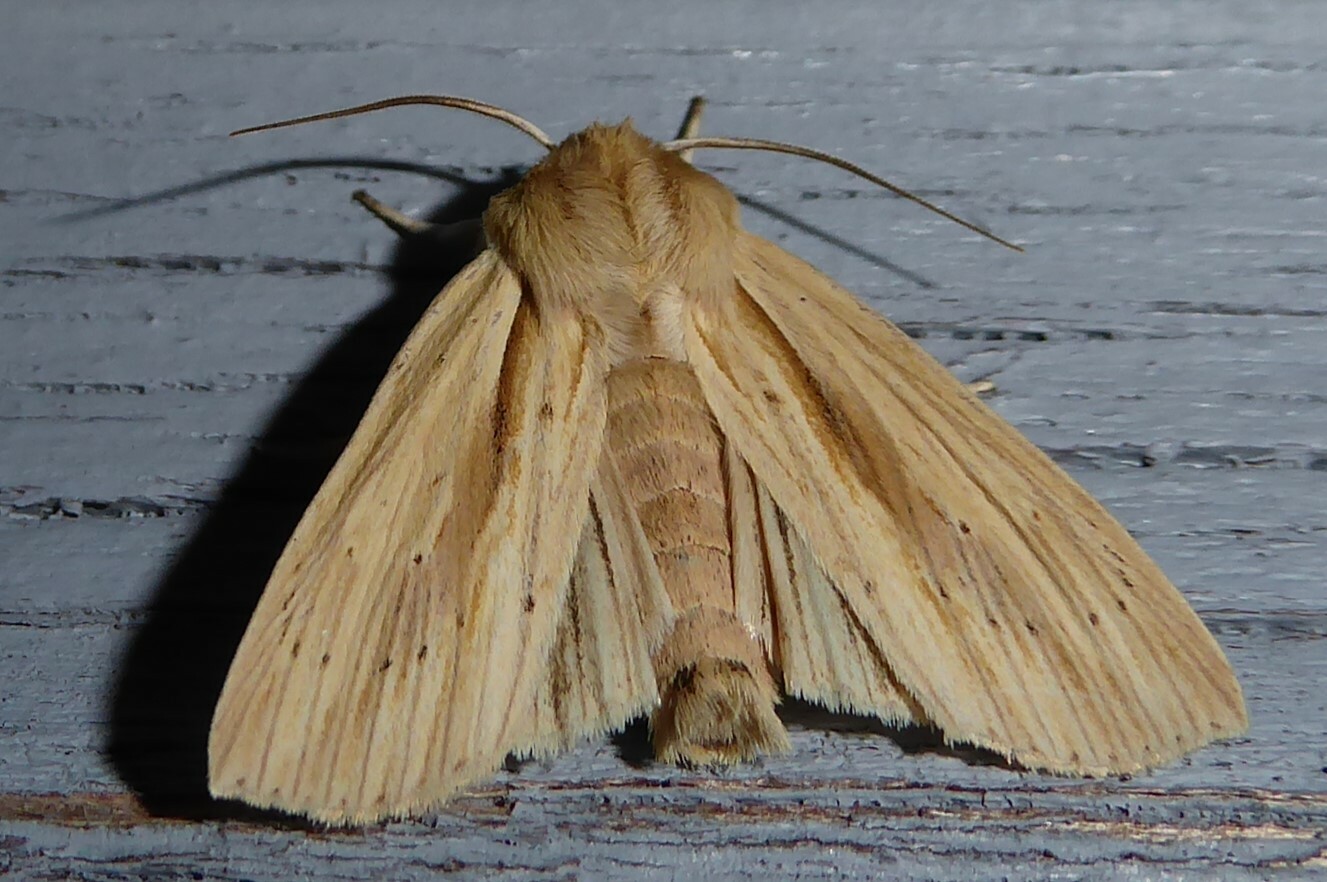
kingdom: Animalia
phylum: Arthropoda
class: Insecta
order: Lepidoptera
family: Noctuidae
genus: Ichneutica
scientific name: Ichneutica semivittata
